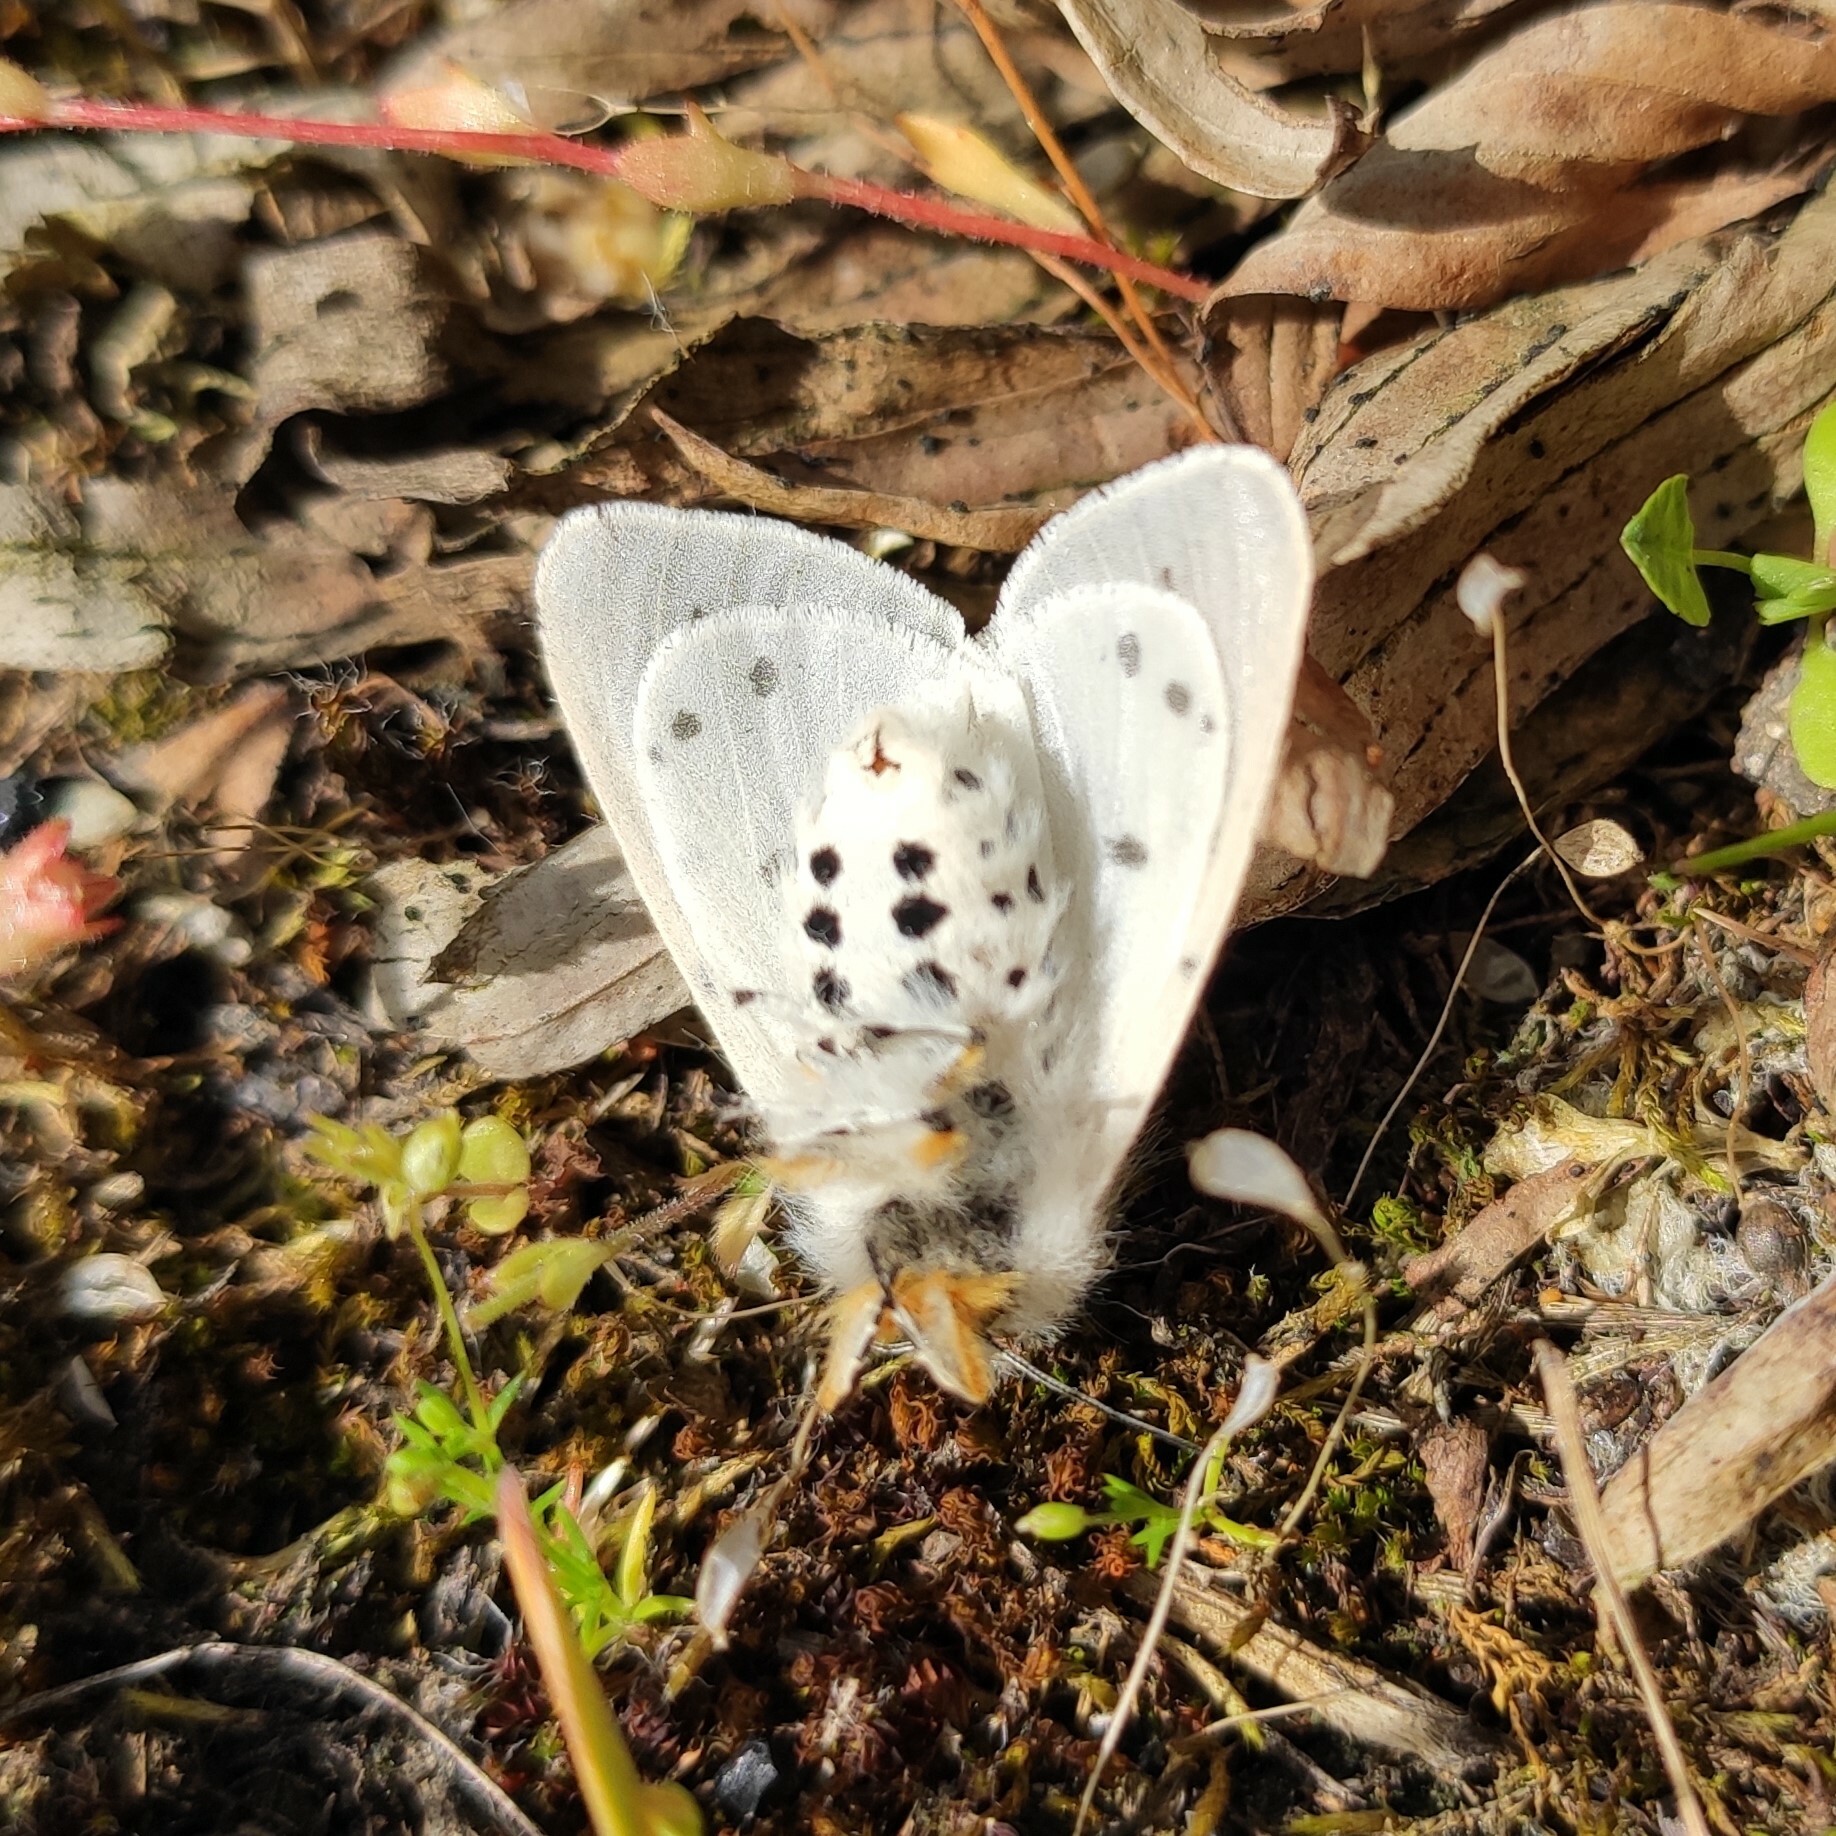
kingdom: Animalia
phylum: Arthropoda
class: Insecta
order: Lepidoptera
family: Erebidae
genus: Diaphora
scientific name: Diaphora mendica
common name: Muslin moth
